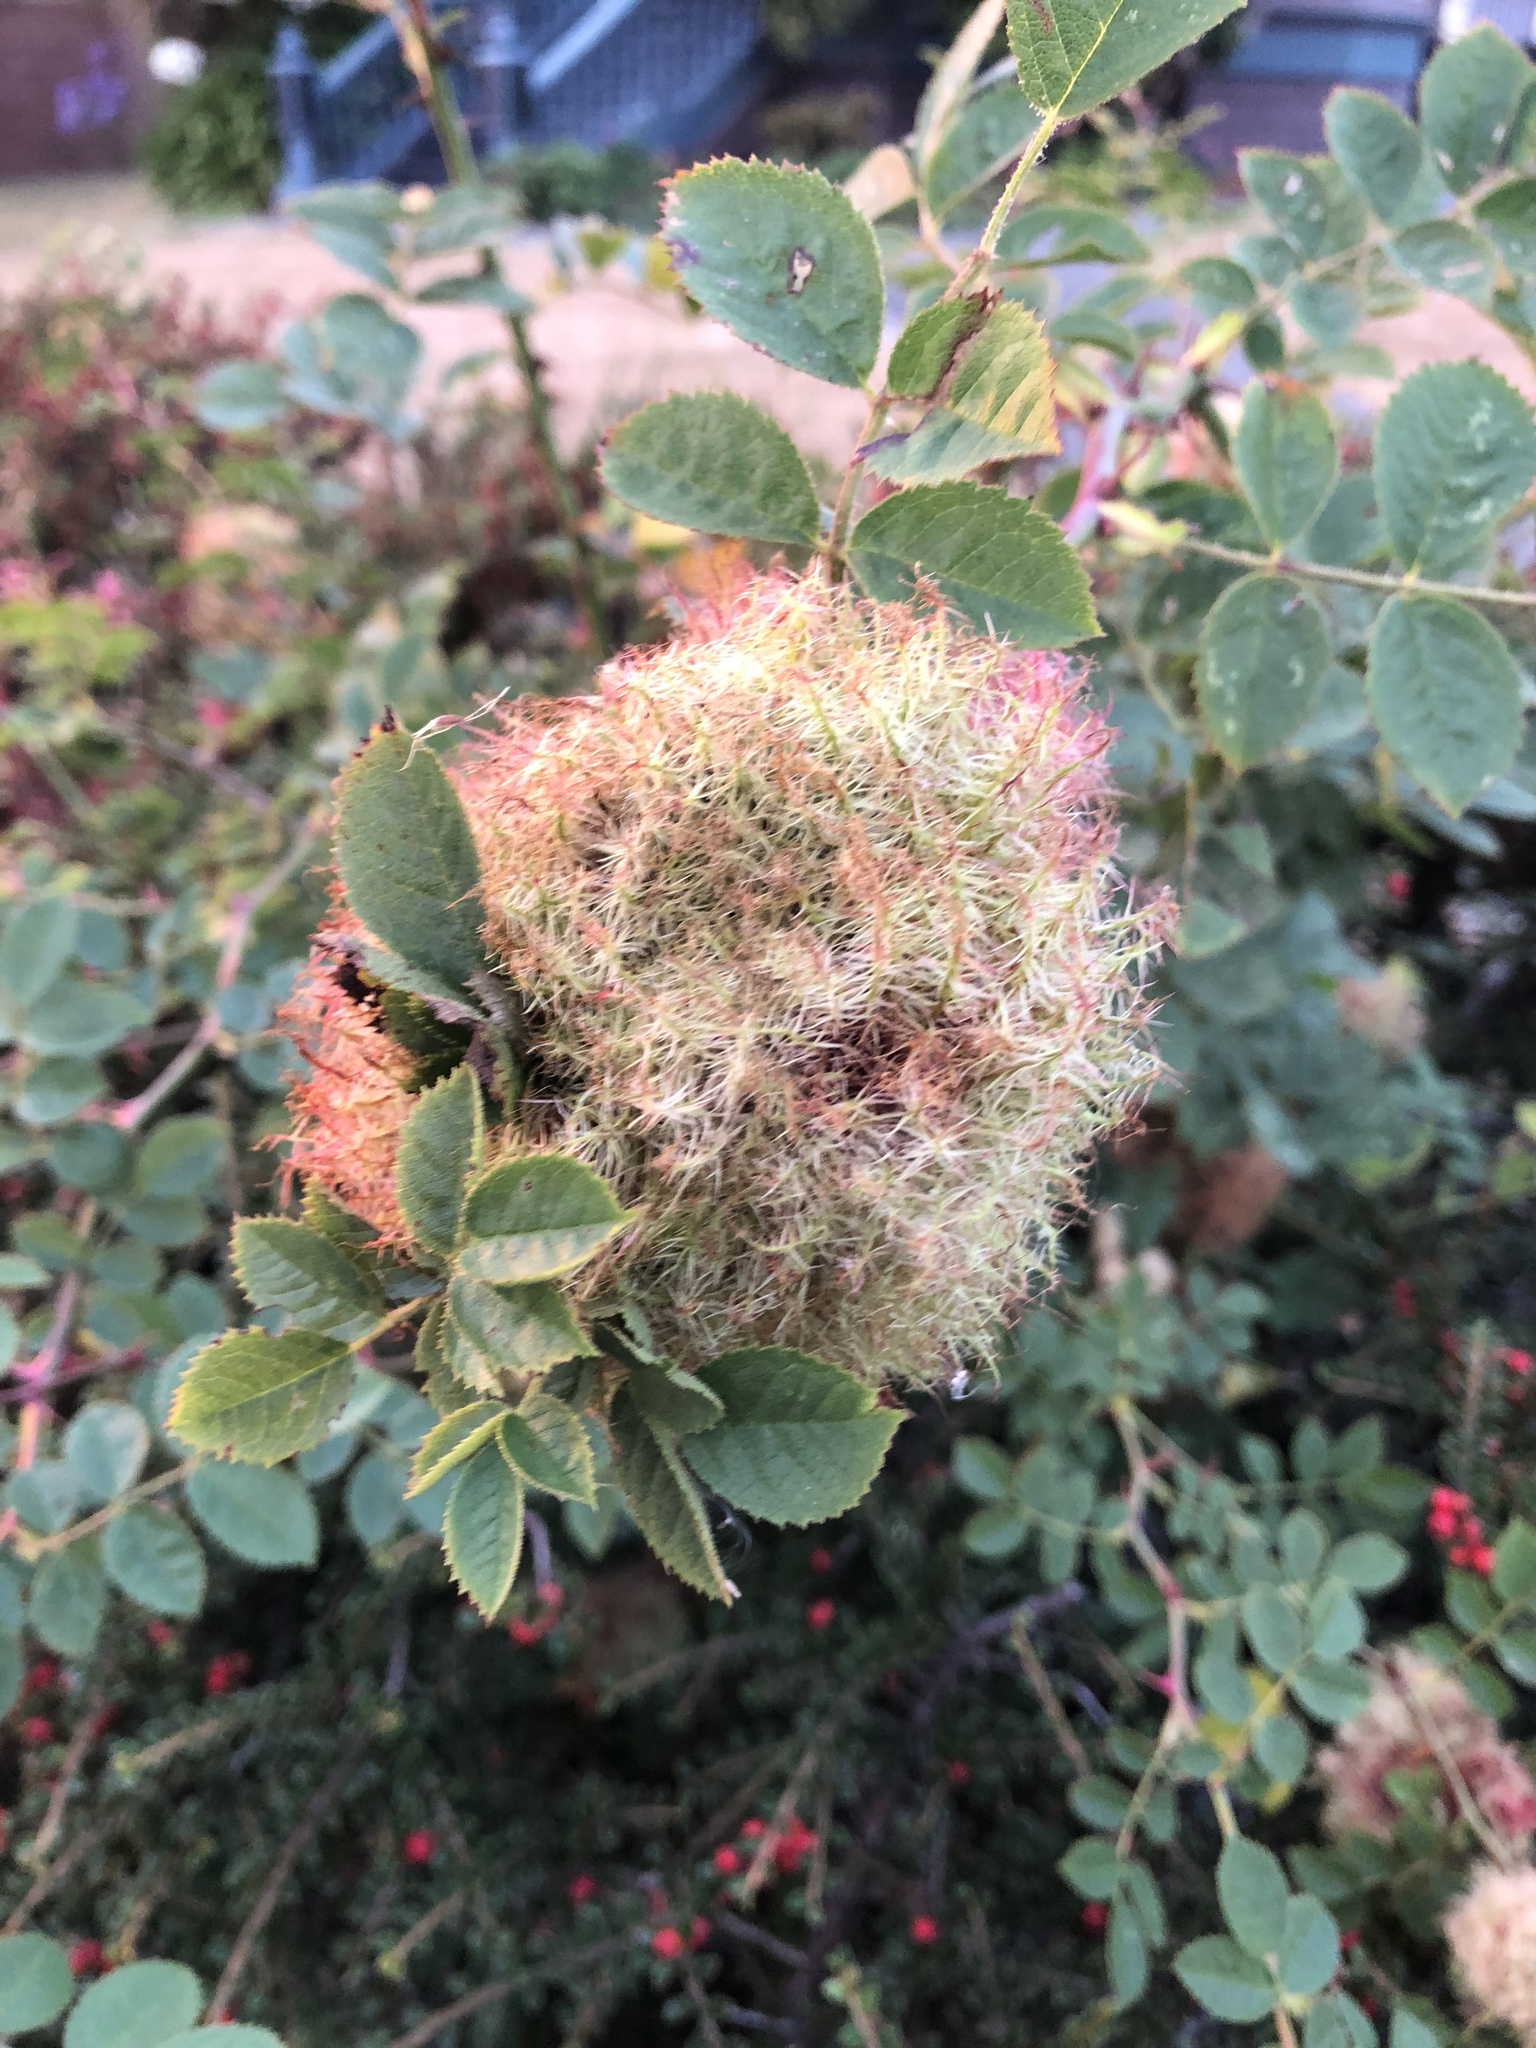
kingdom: Animalia
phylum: Arthropoda
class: Insecta
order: Hymenoptera
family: Cynipidae
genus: Diplolepis
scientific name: Diplolepis rosae
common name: Bedeguar gall
